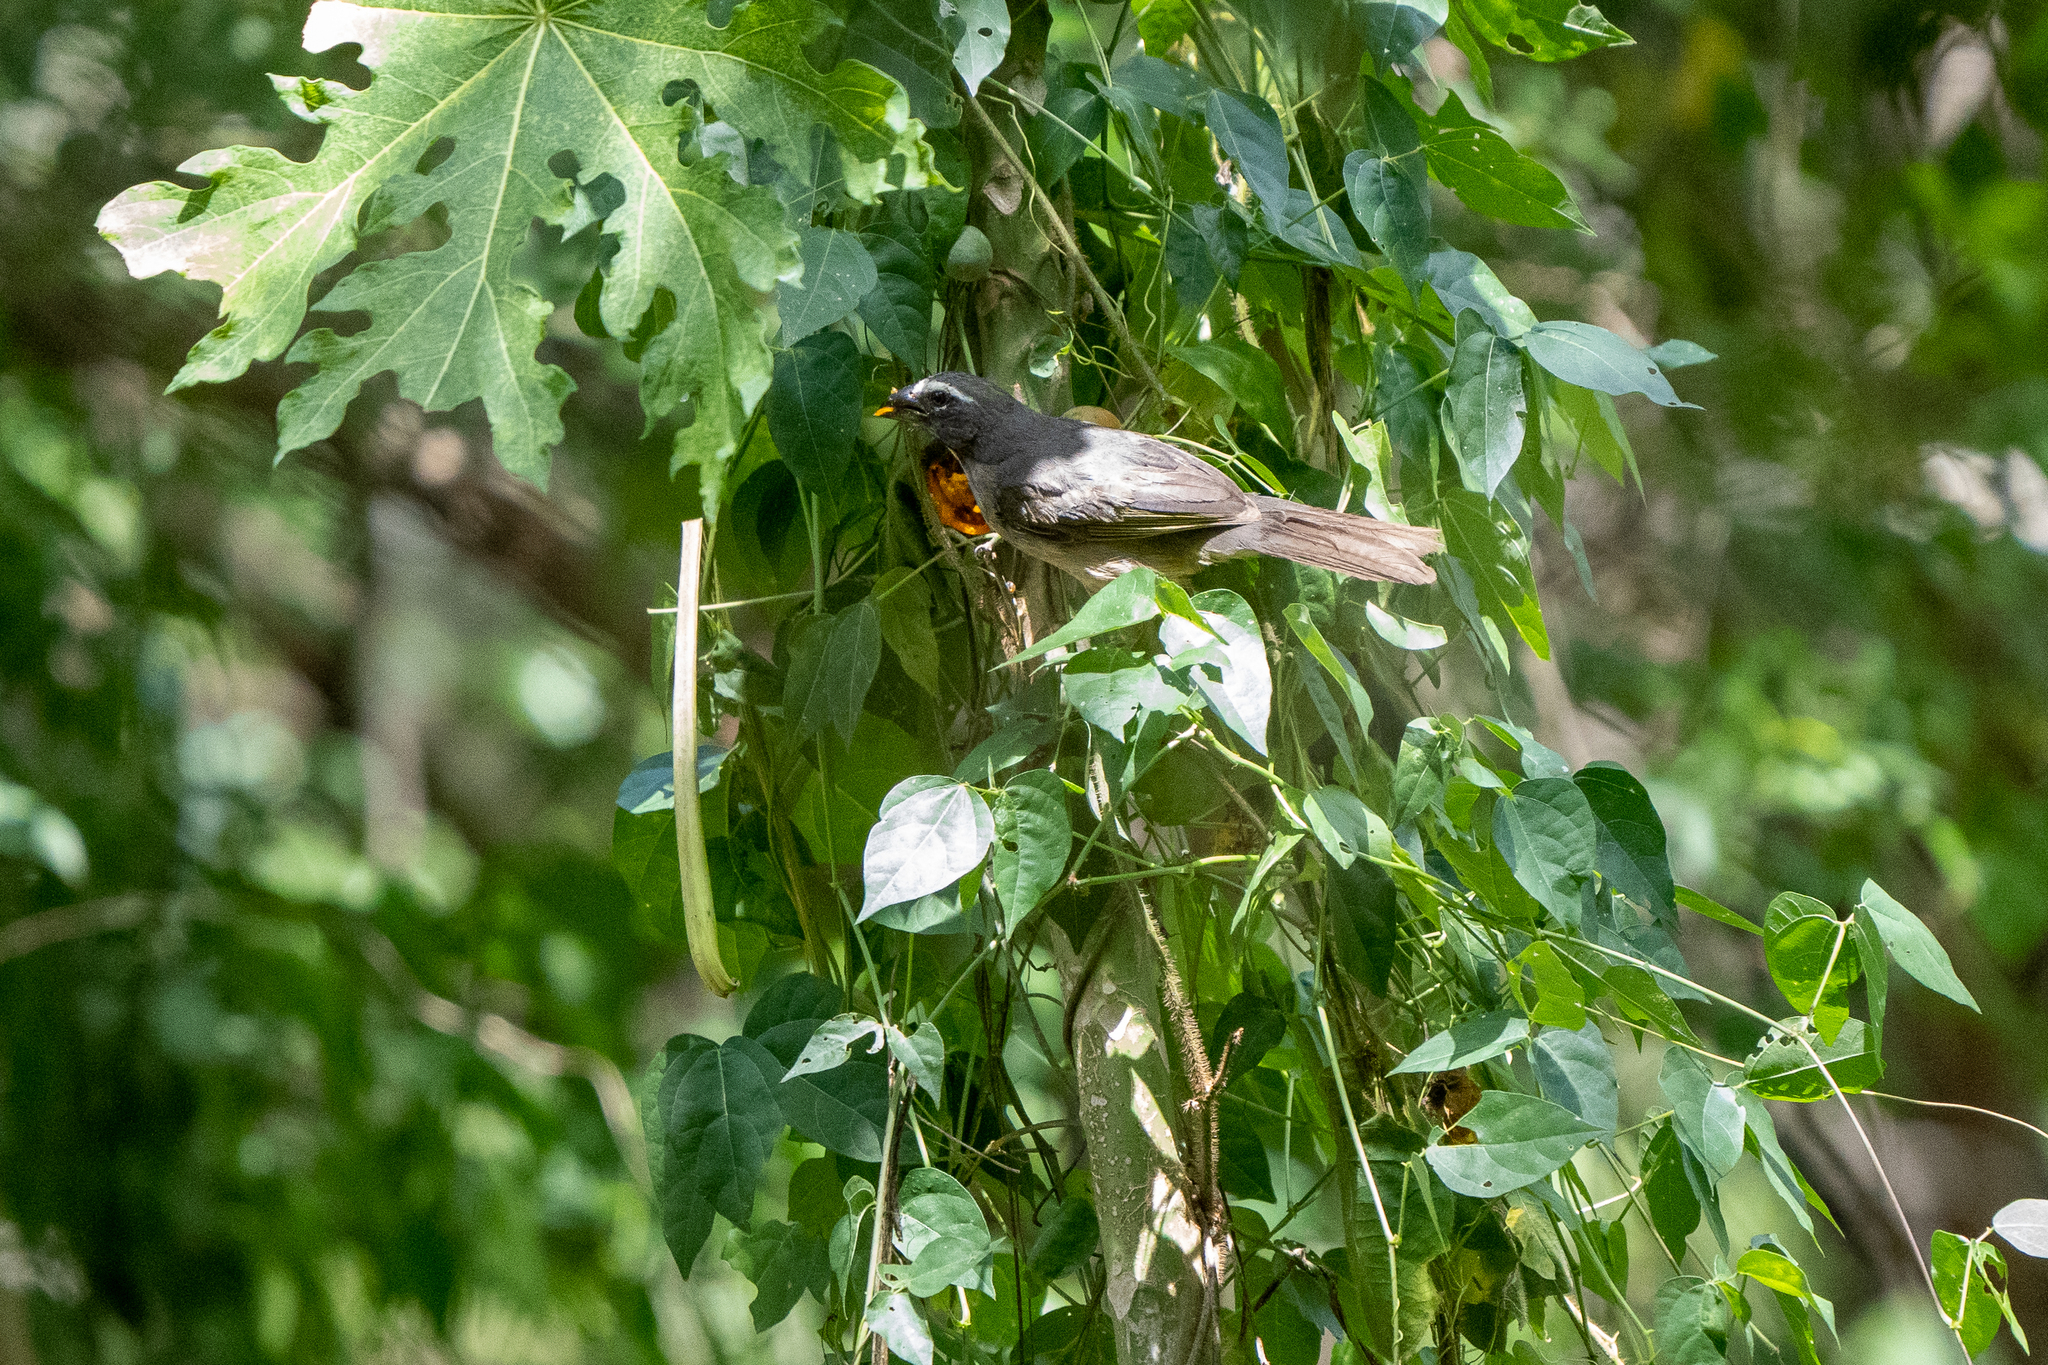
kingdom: Animalia
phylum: Chordata
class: Aves
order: Passeriformes
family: Thraupidae
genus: Saltator
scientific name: Saltator grandis
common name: Cinnamon-bellied saltator
